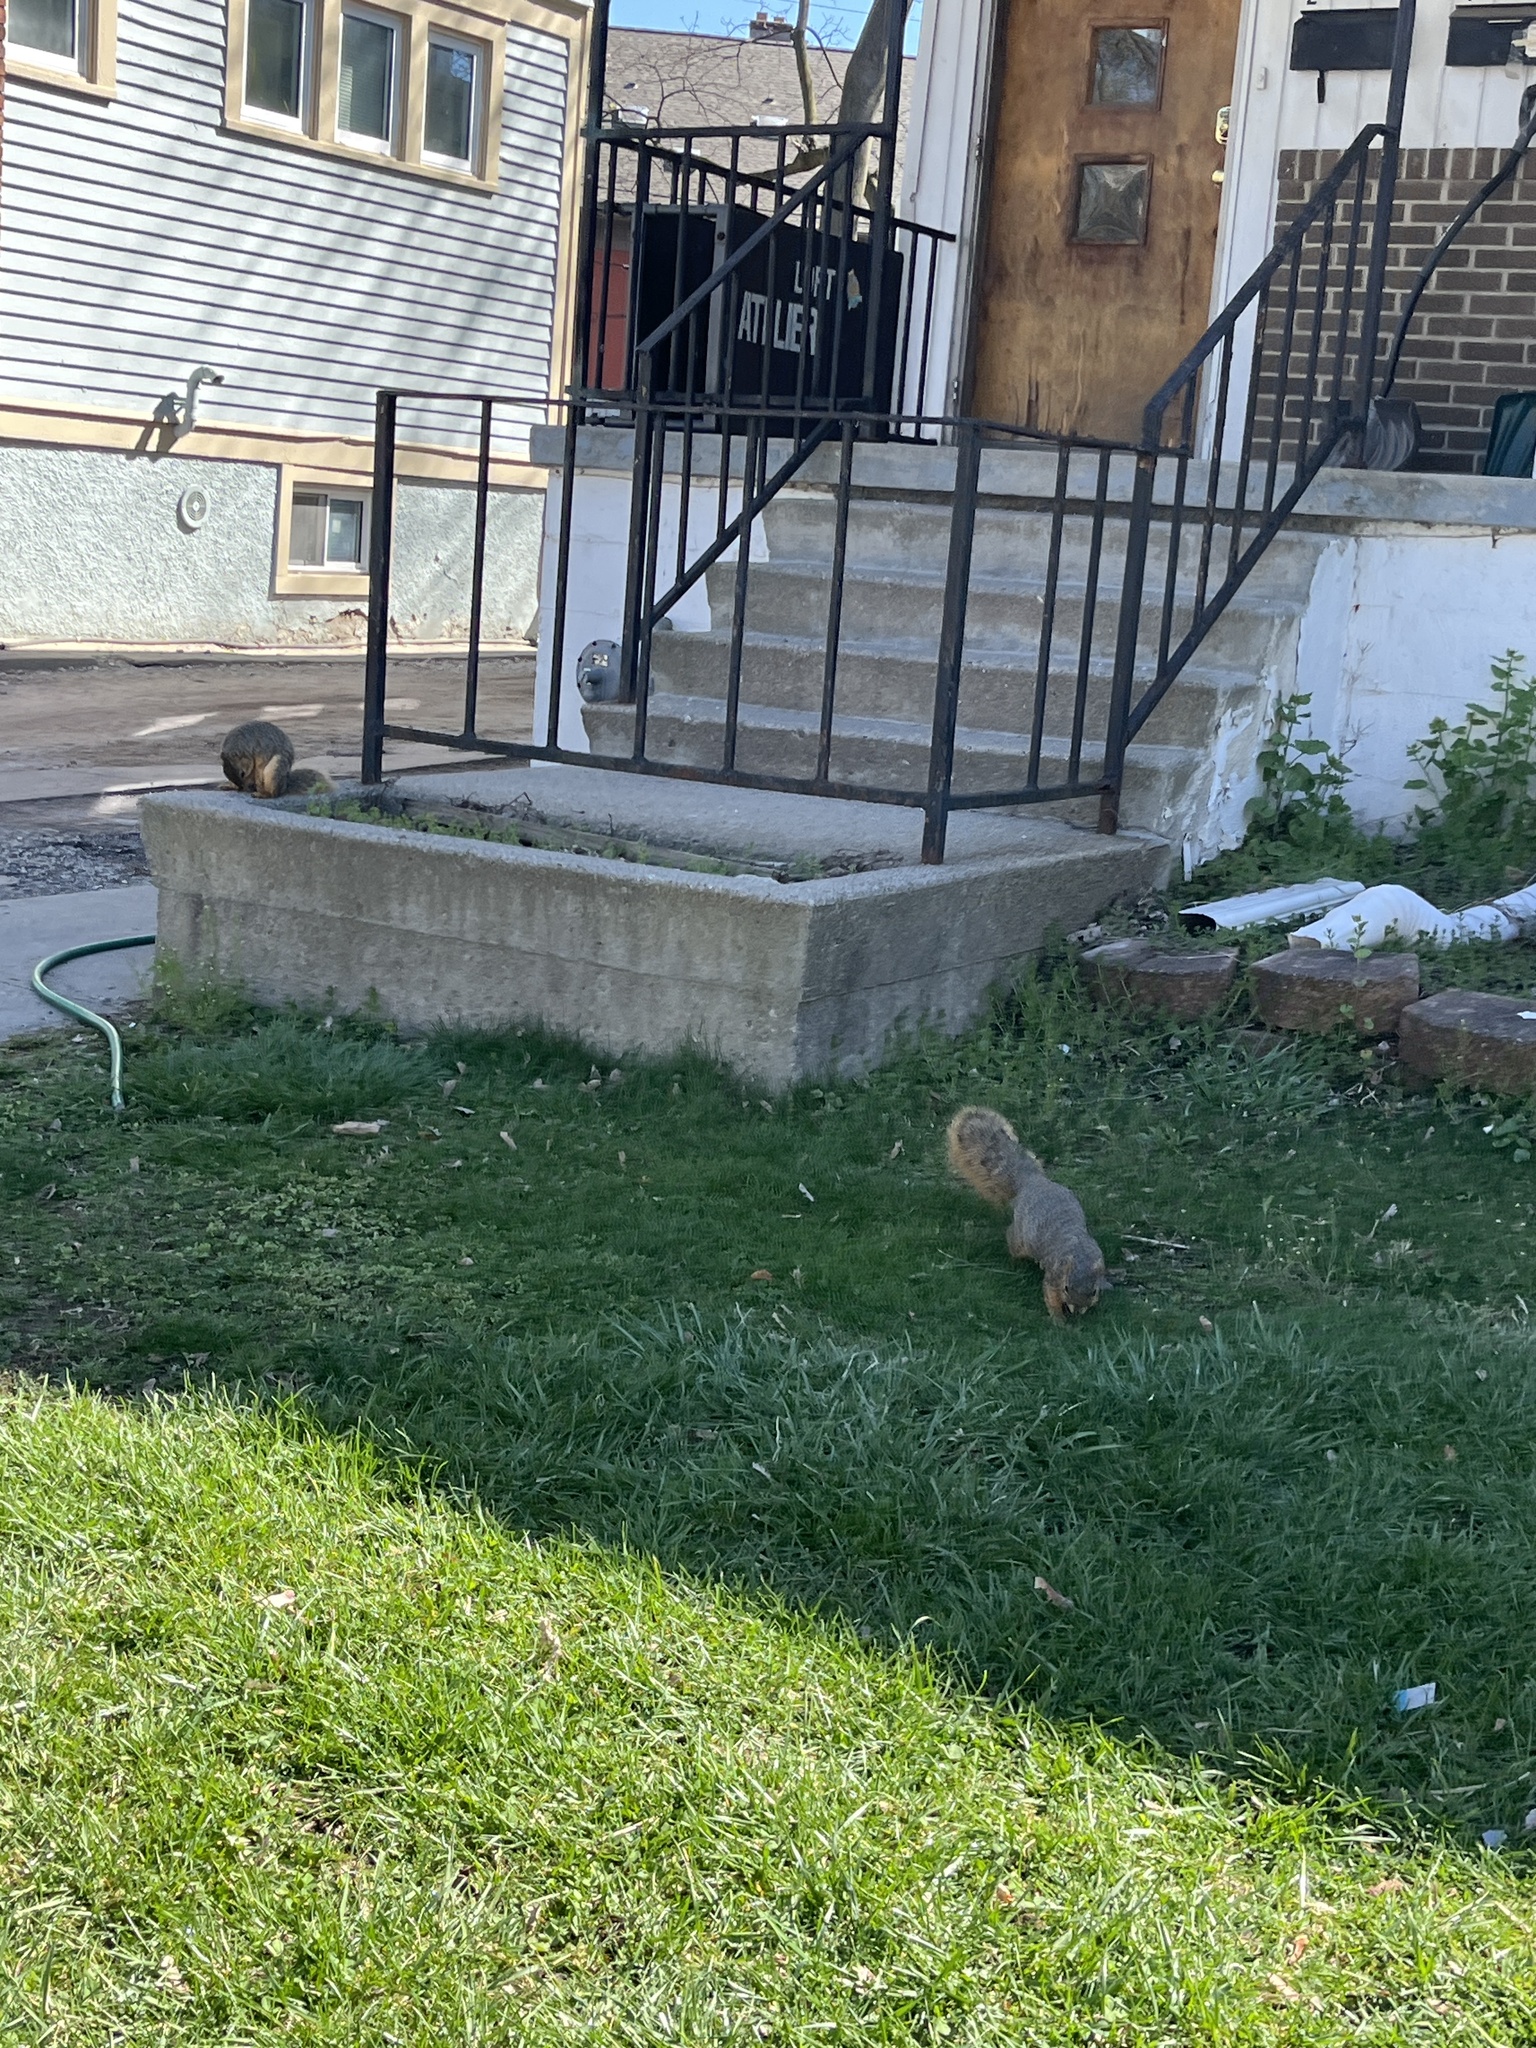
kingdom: Animalia
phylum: Chordata
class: Mammalia
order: Rodentia
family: Sciuridae
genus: Sciurus
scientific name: Sciurus niger
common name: Fox squirrel
